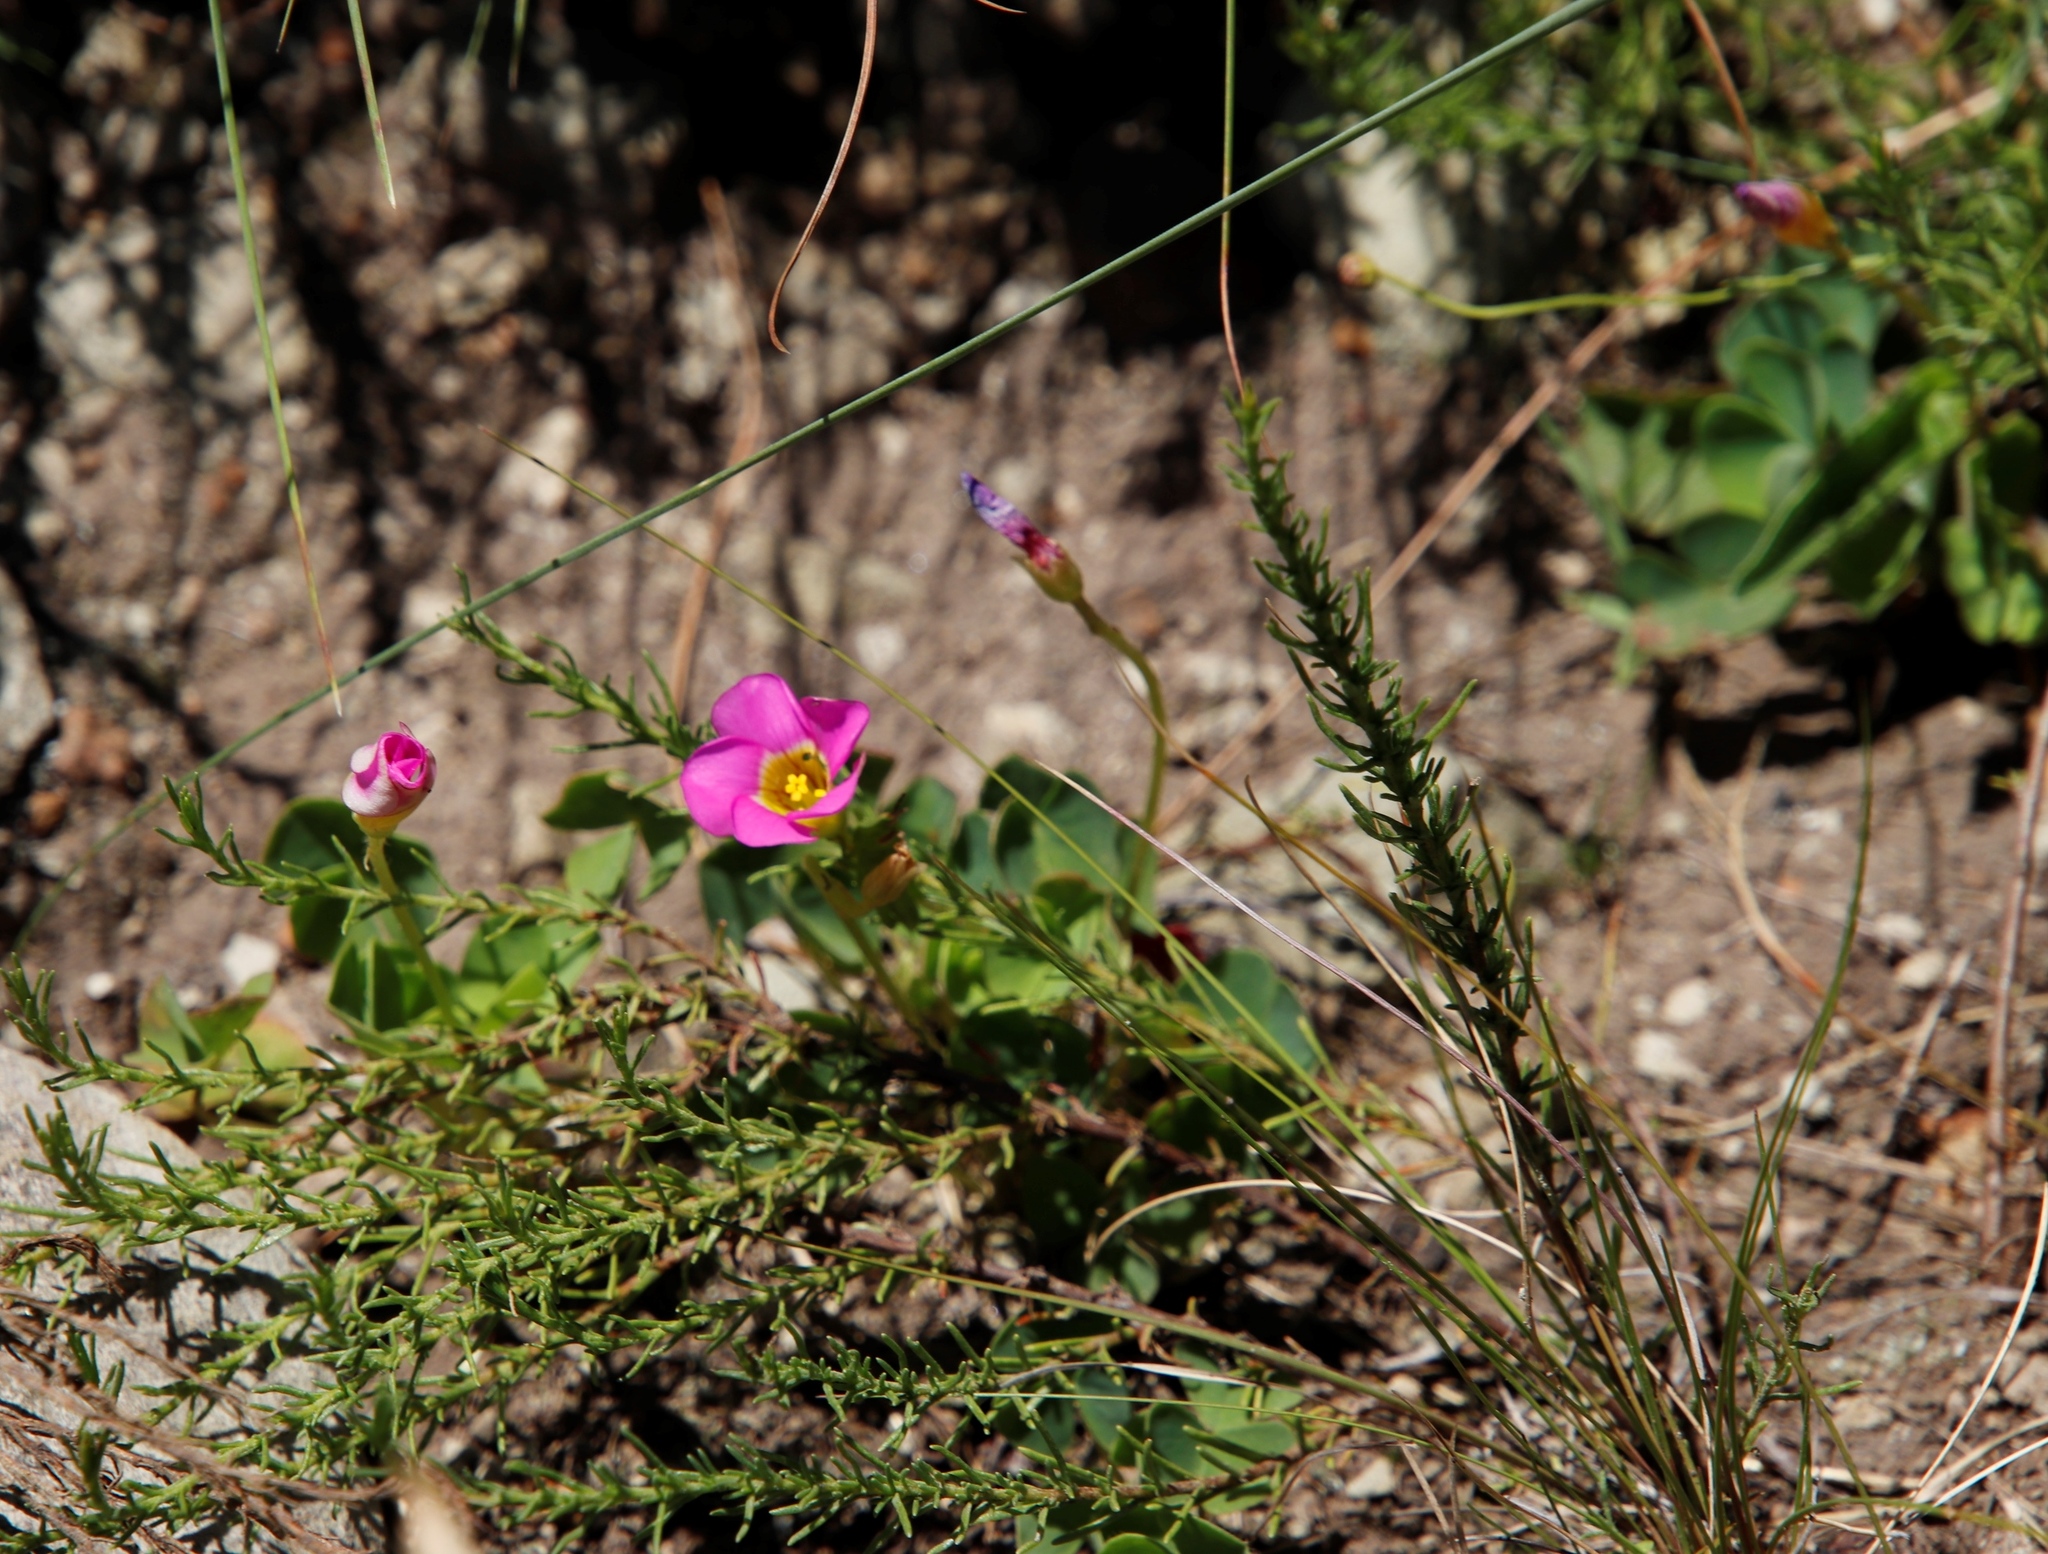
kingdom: Plantae
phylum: Tracheophyta
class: Magnoliopsida
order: Oxalidales
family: Oxalidaceae
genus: Oxalis
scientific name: Oxalis obliquifolia
